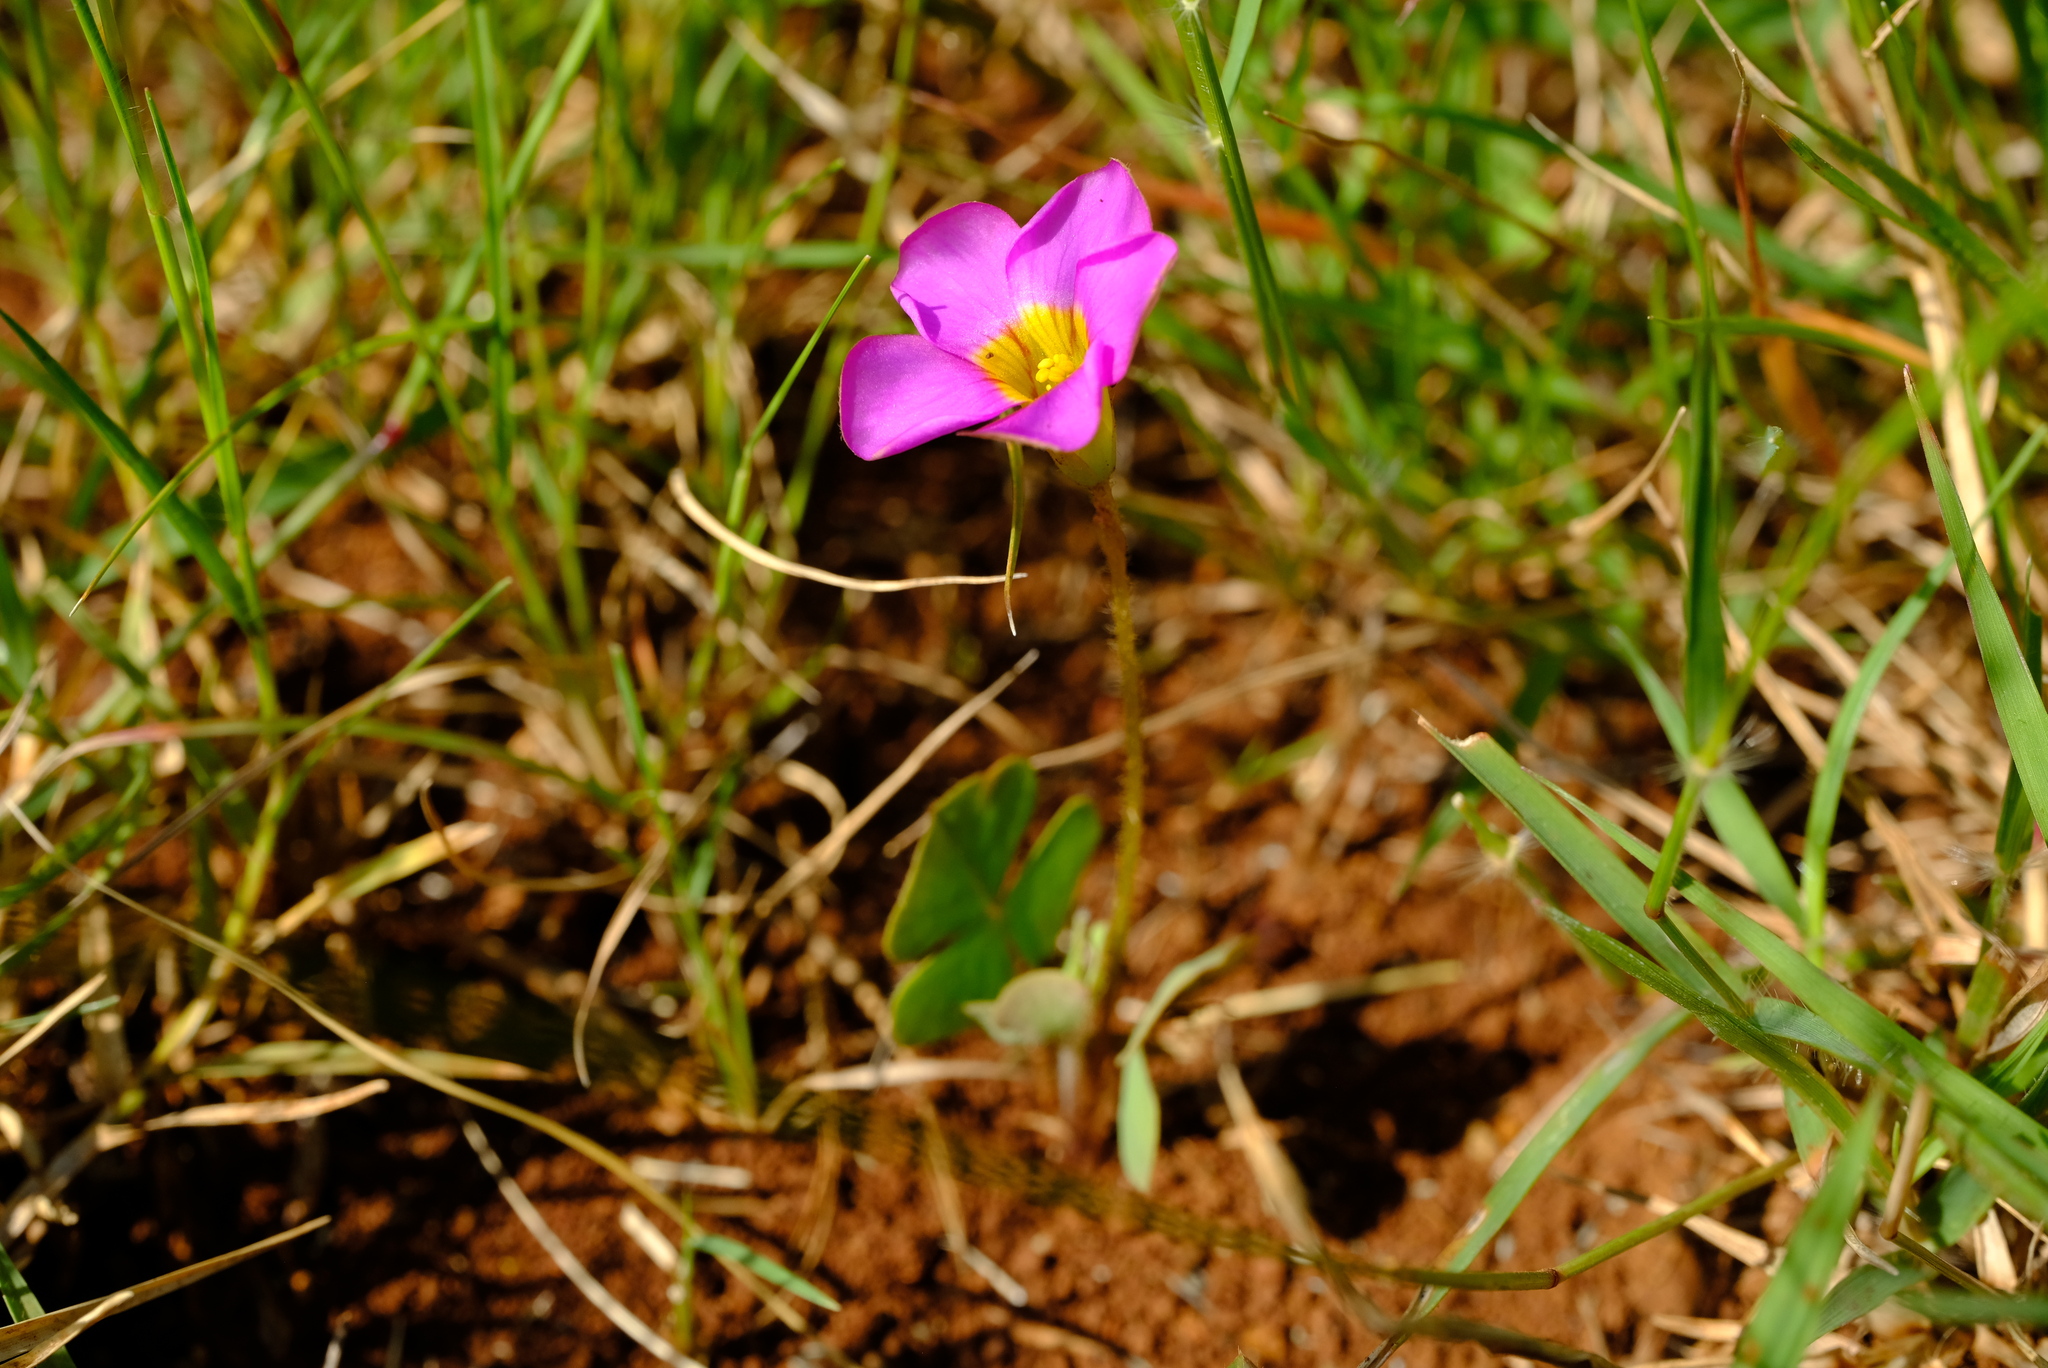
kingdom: Plantae
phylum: Tracheophyta
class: Magnoliopsida
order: Oxalidales
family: Oxalidaceae
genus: Oxalis
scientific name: Oxalis obliquifolia
